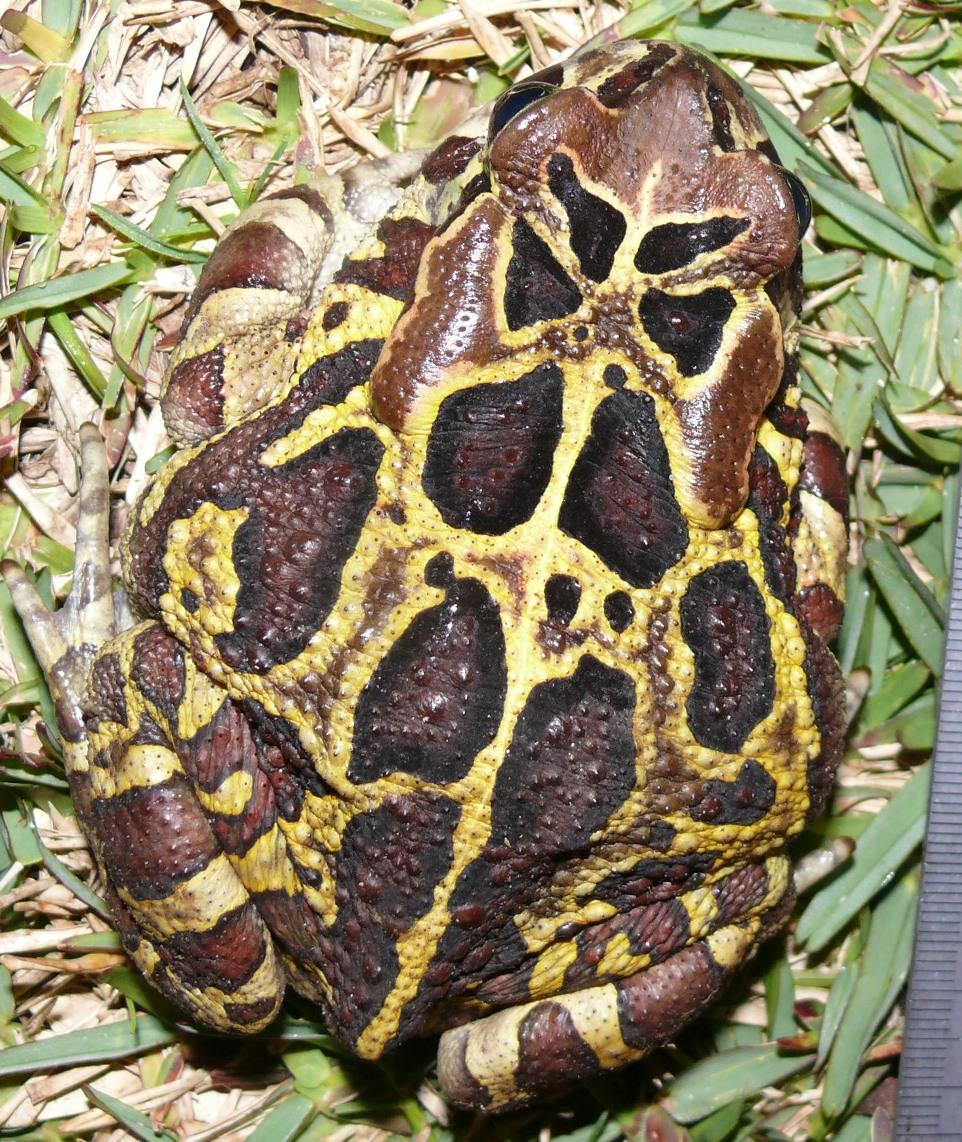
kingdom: Animalia
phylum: Chordata
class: Amphibia
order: Anura
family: Bufonidae
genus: Sclerophrys
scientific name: Sclerophrys pantherina
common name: Panther toad
